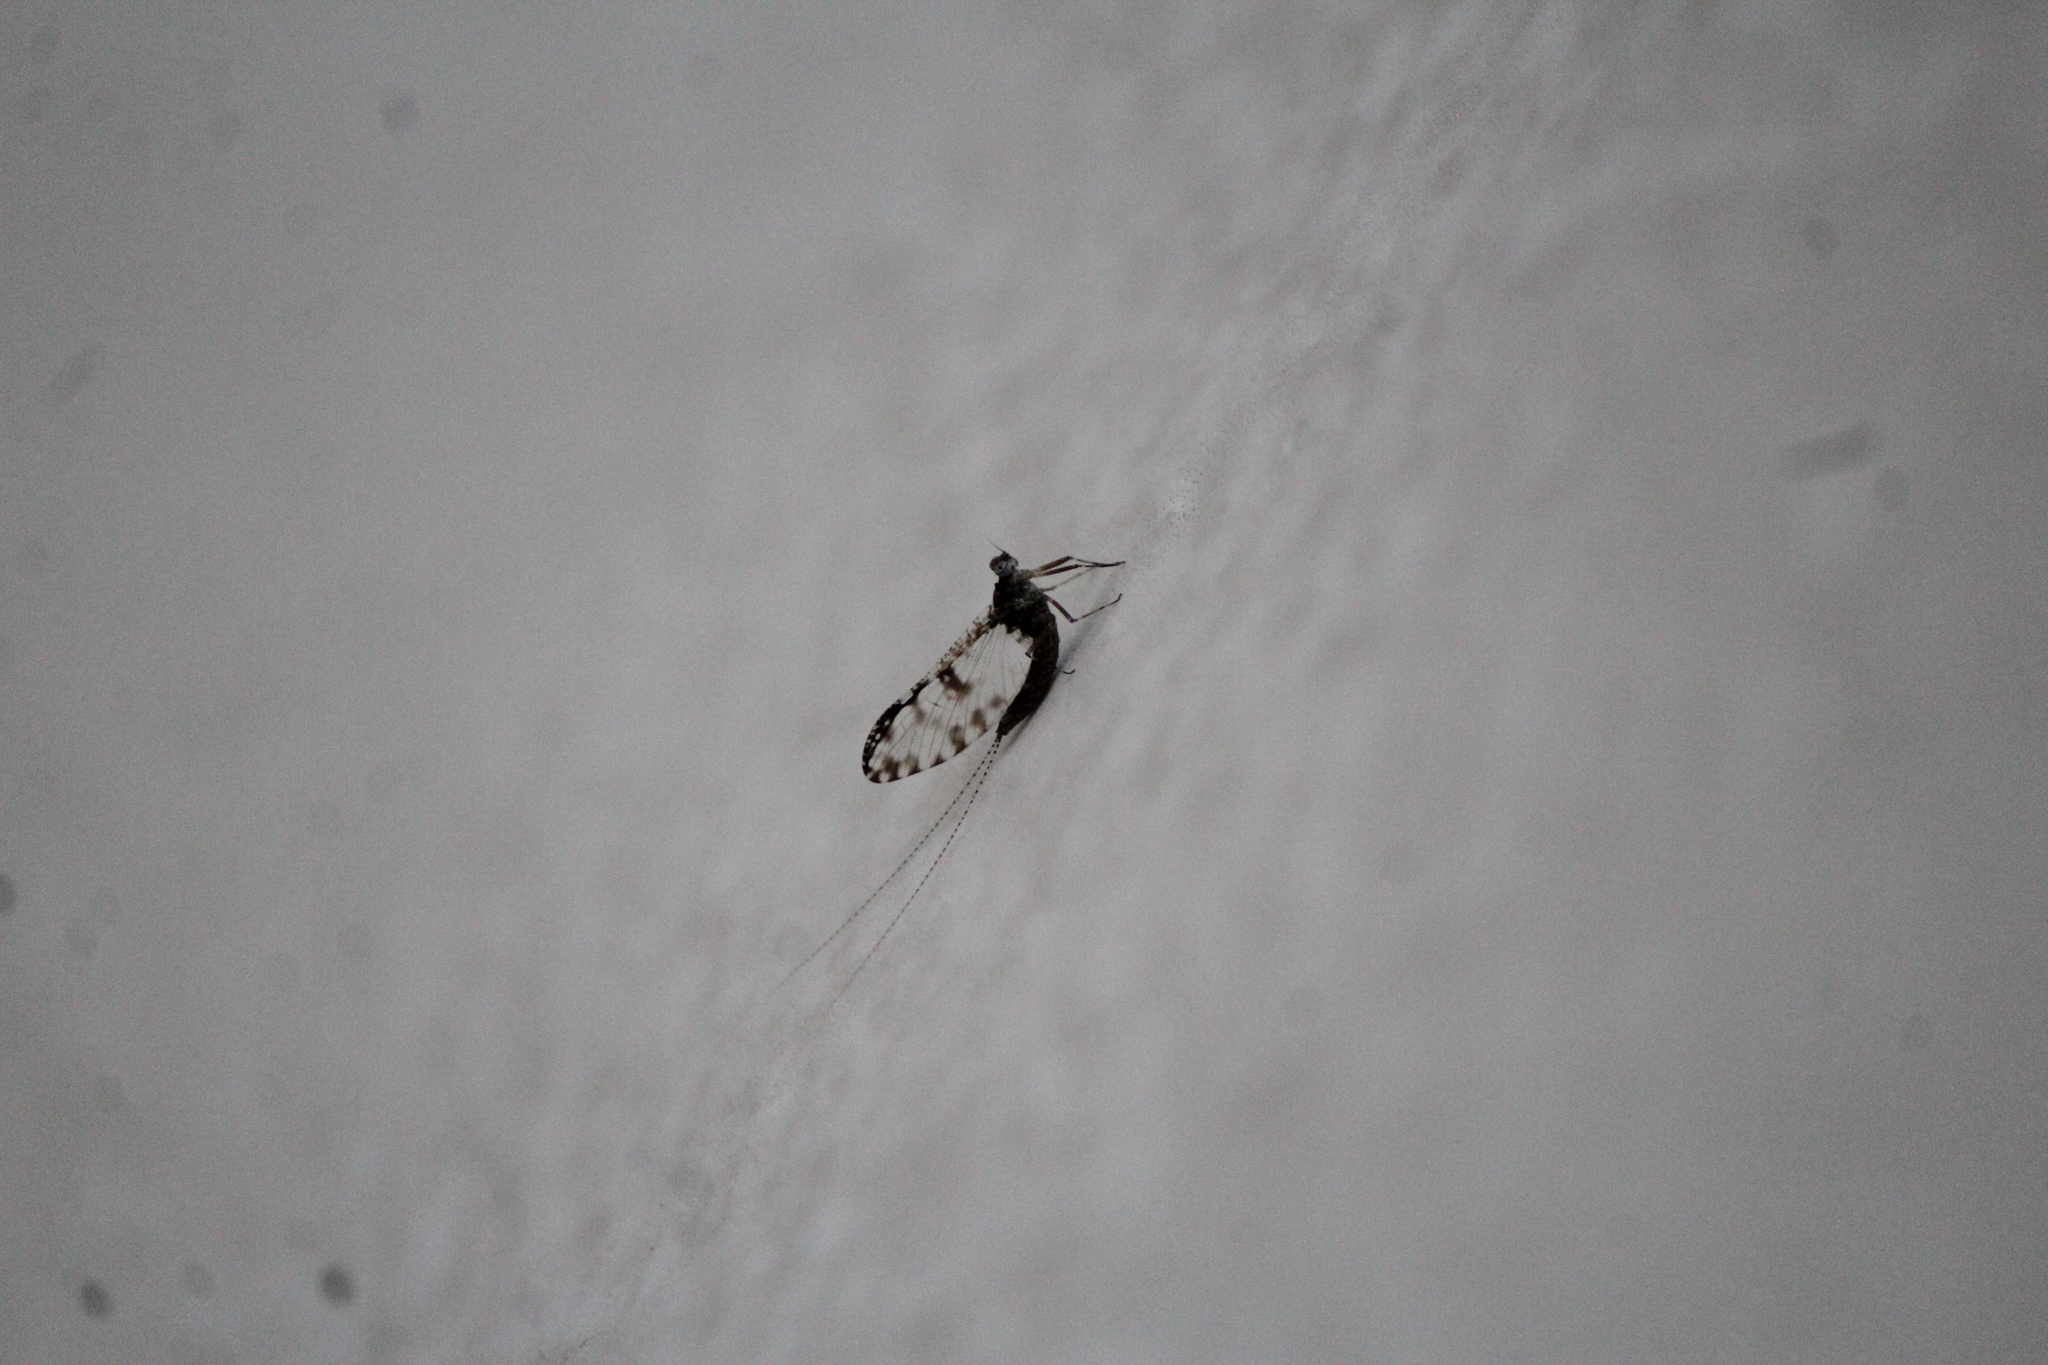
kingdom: Animalia
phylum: Arthropoda
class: Insecta
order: Ephemeroptera
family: Baetidae
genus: Callibaetis
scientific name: Callibaetis pictus
